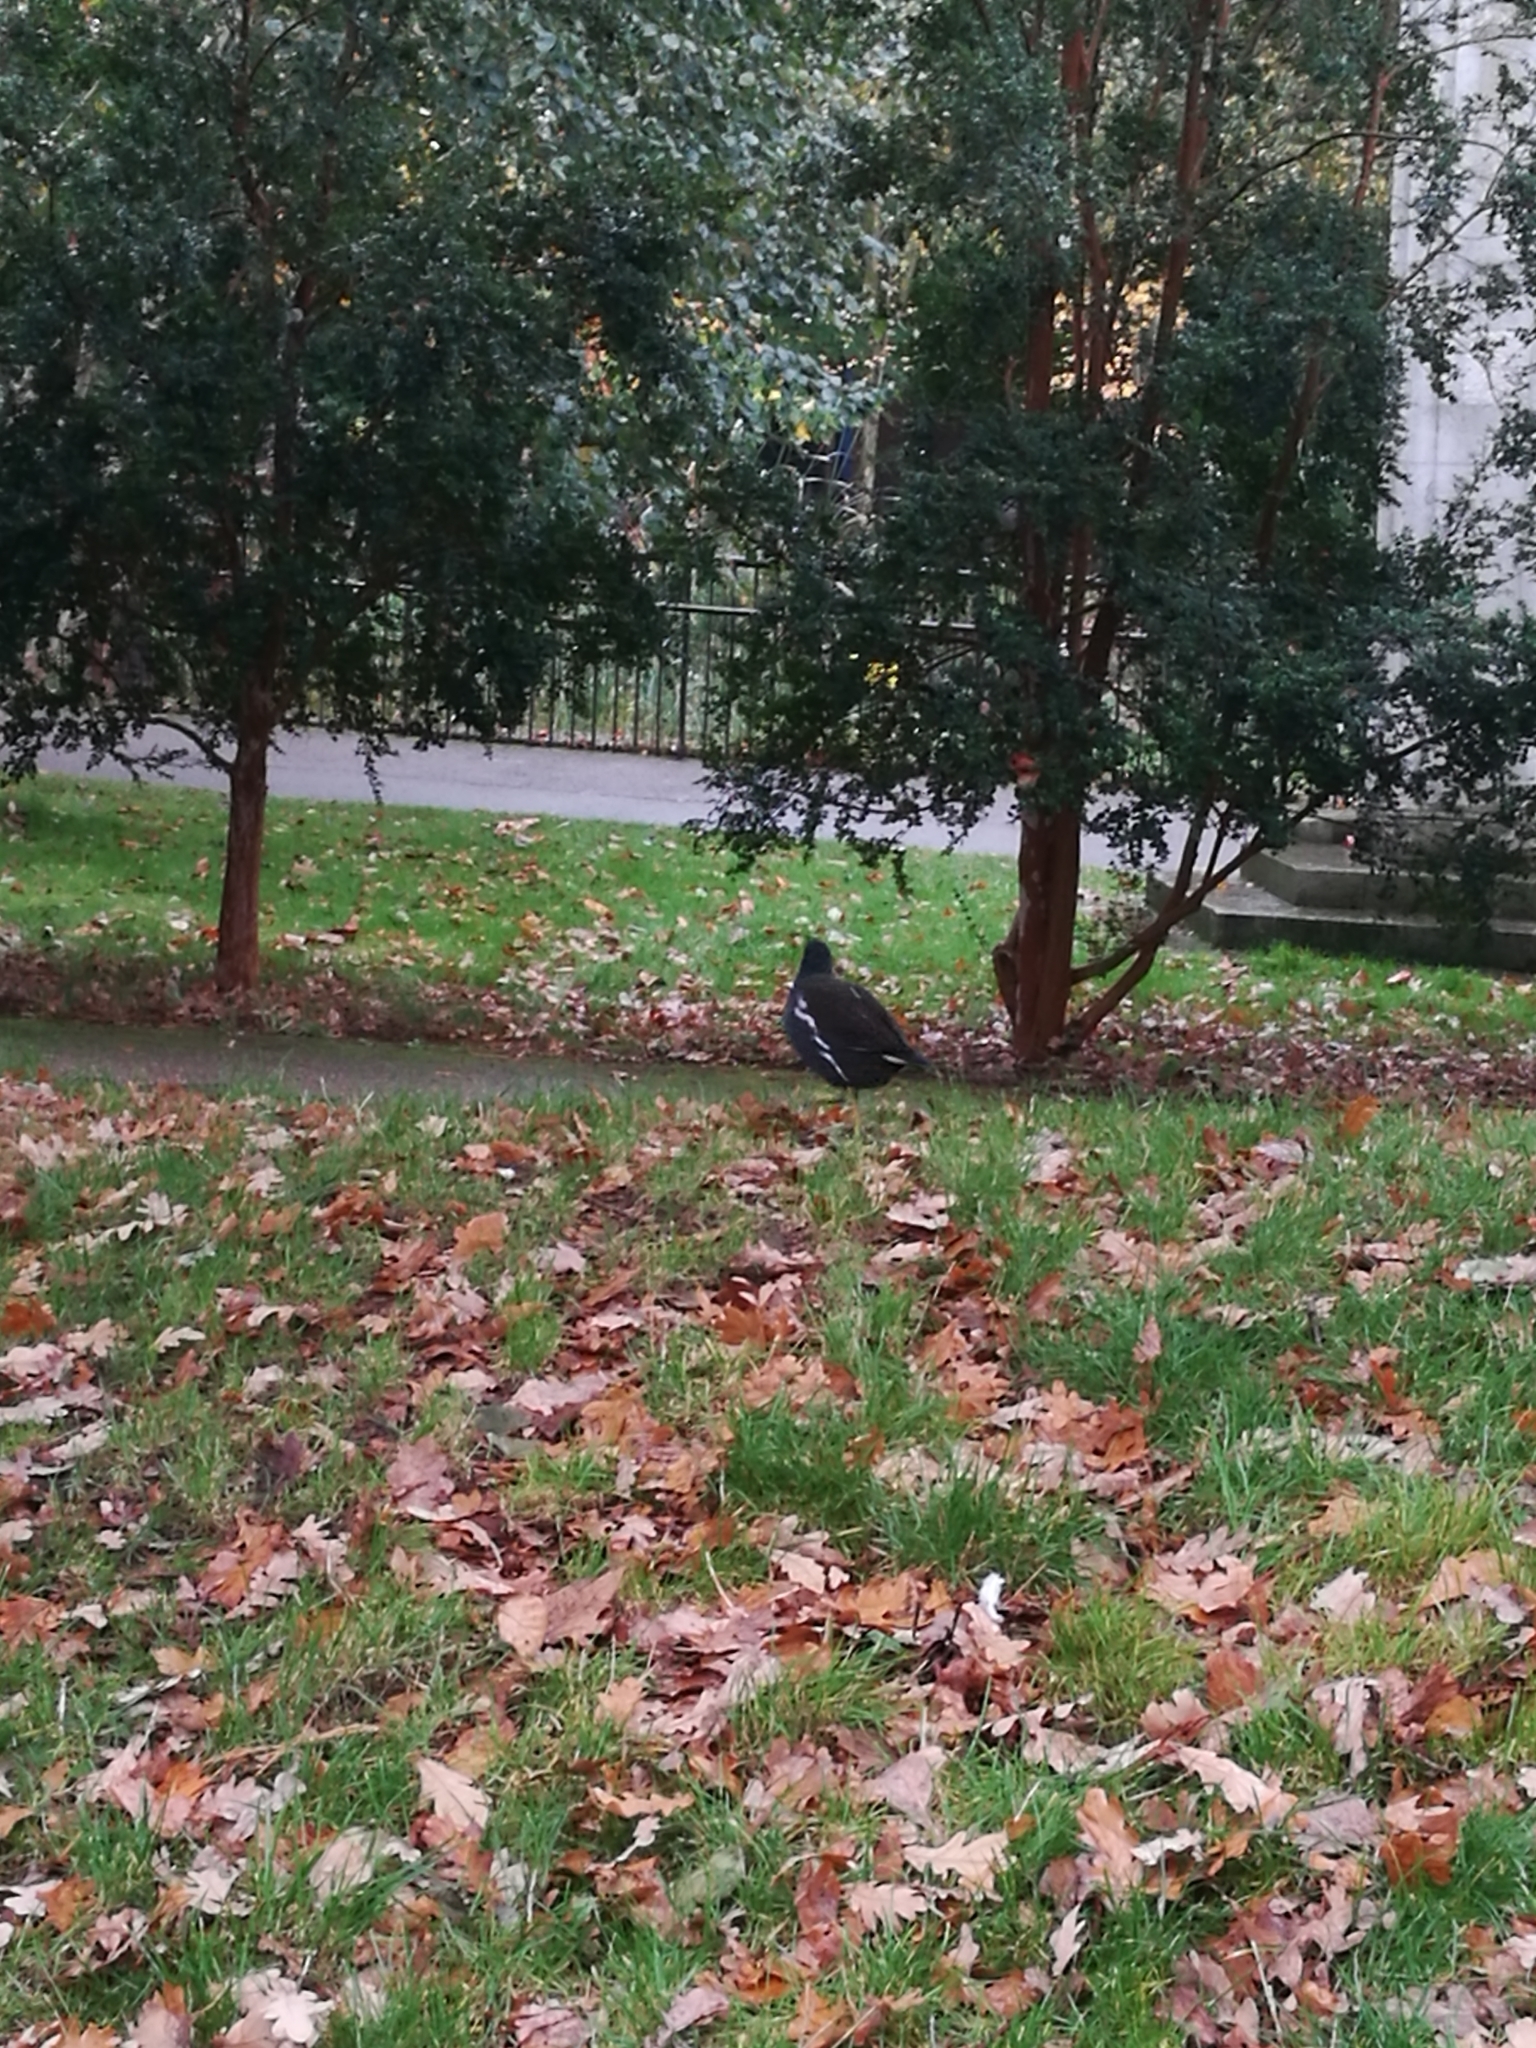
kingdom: Animalia
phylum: Chordata
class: Aves
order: Gruiformes
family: Rallidae
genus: Gallinula
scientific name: Gallinula chloropus
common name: Common moorhen
